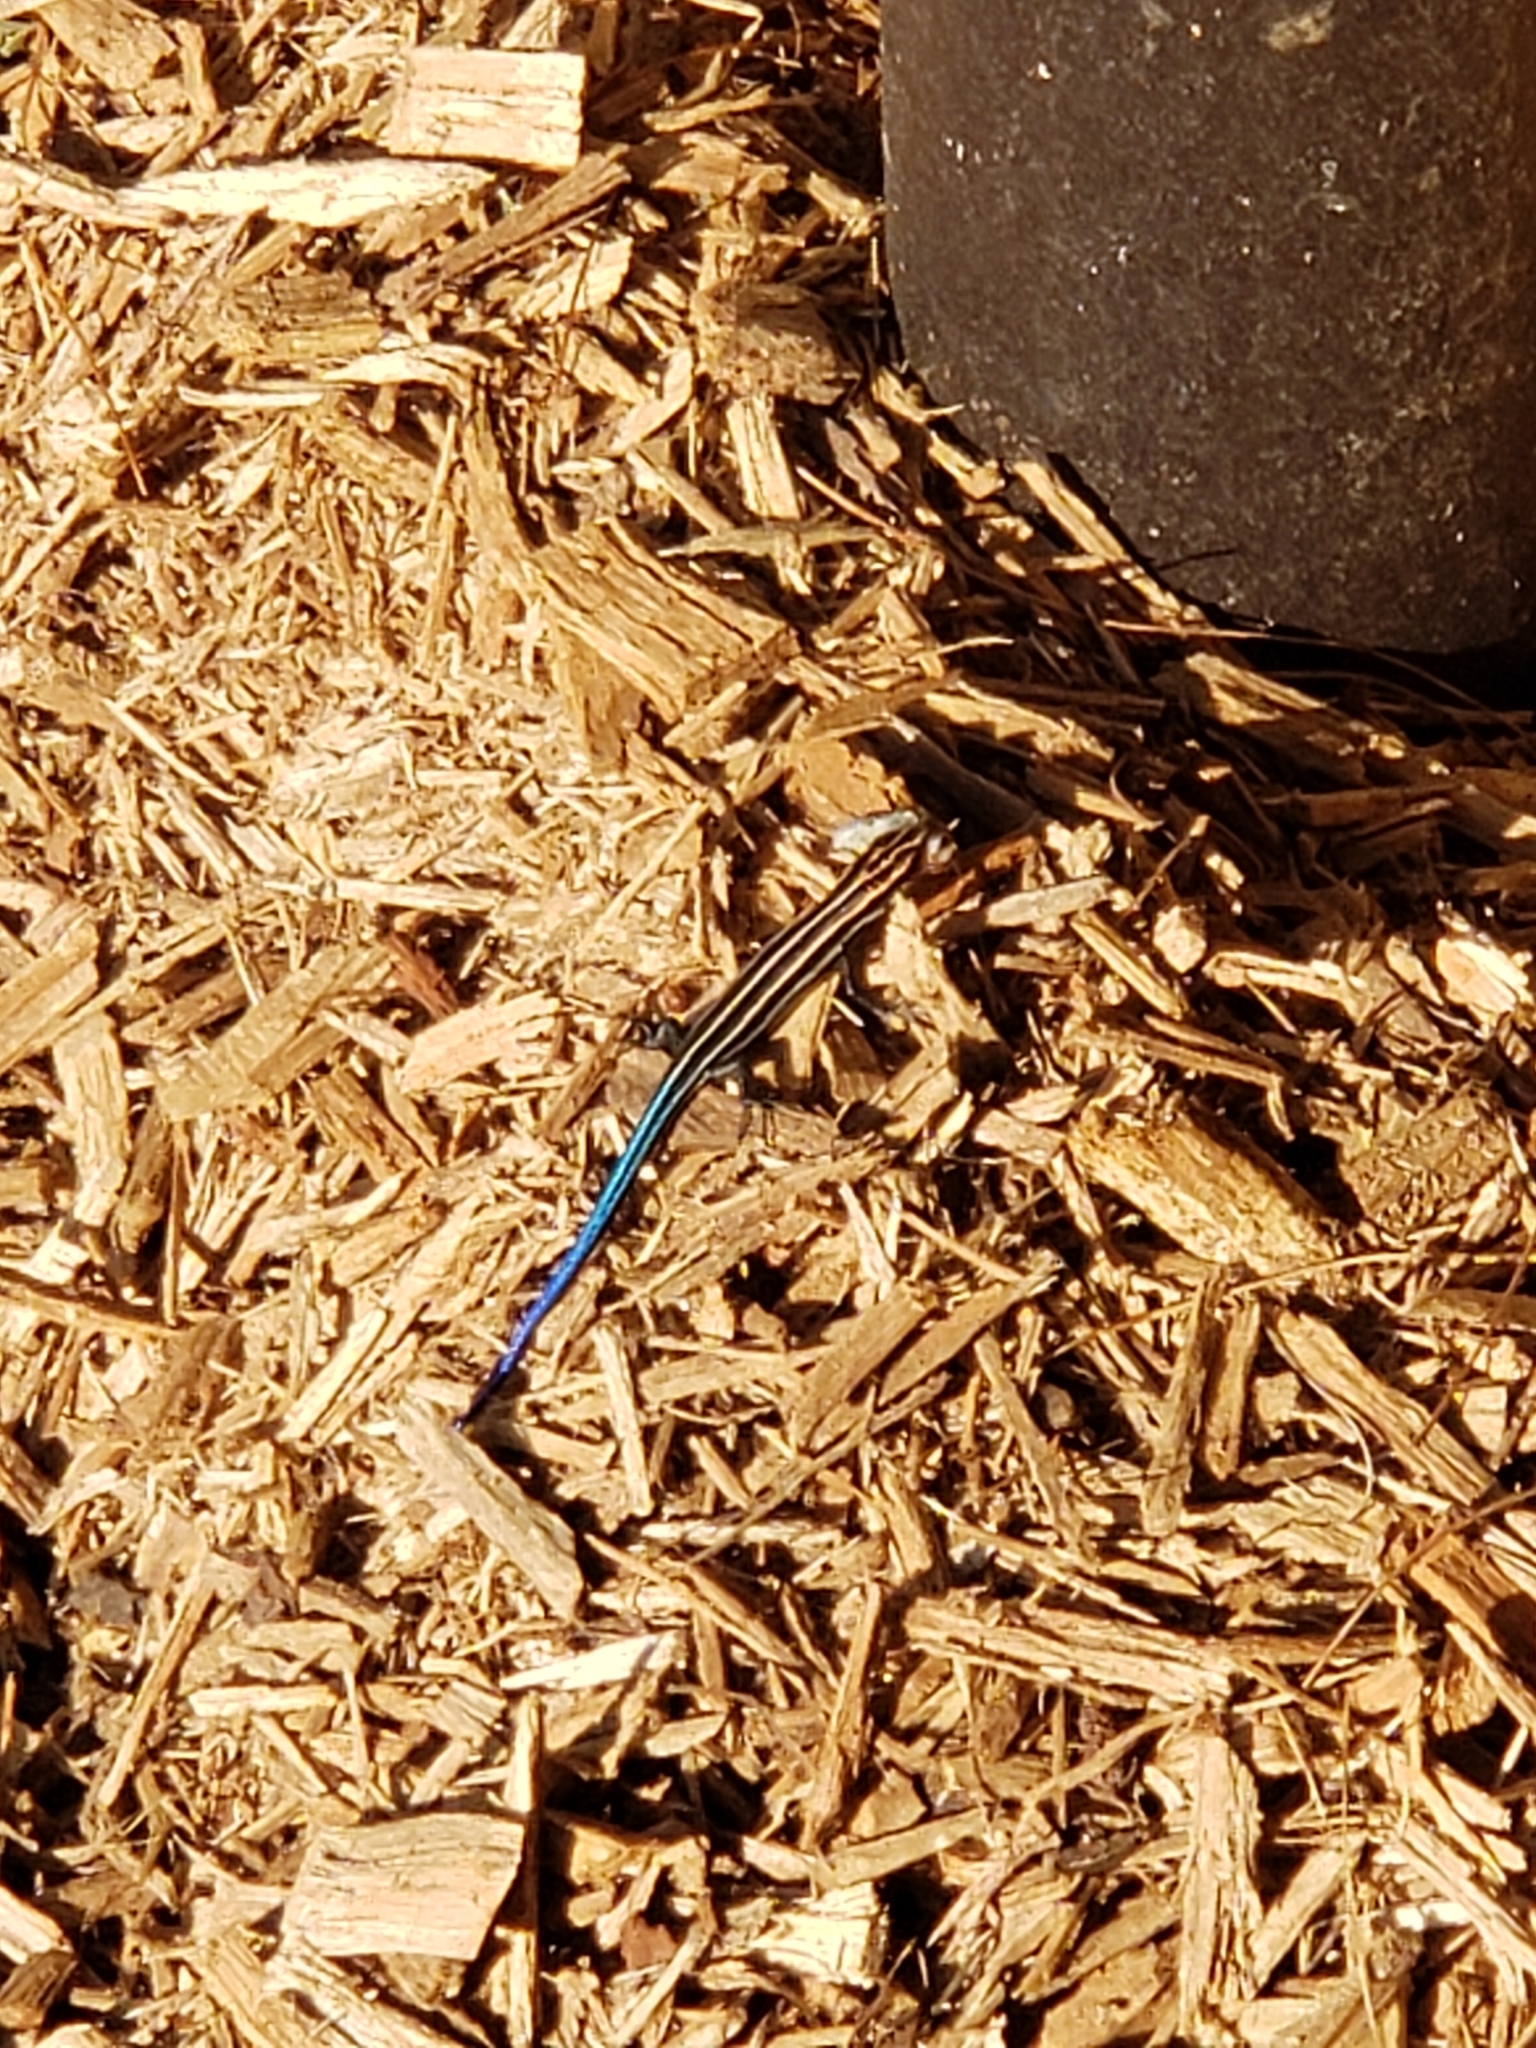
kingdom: Animalia
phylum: Chordata
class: Squamata
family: Scincidae
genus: Plestiodon
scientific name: Plestiodon fasciatus
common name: Five-lined skink
